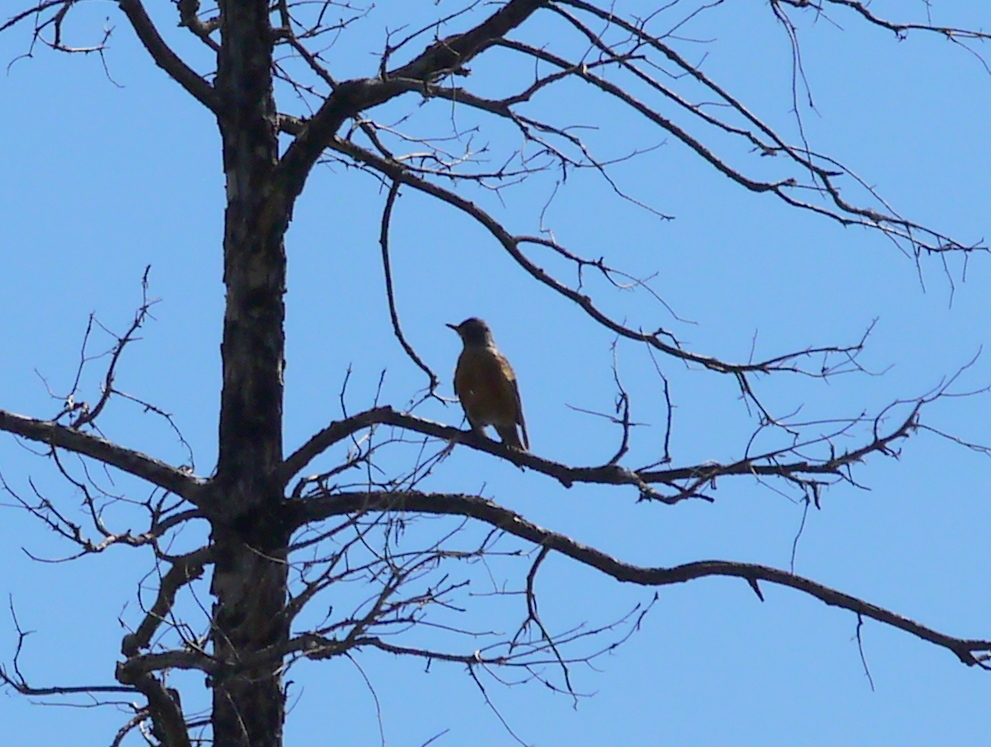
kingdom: Animalia
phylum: Chordata
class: Aves
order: Passeriformes
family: Turdidae
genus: Turdus
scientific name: Turdus migratorius
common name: American robin
